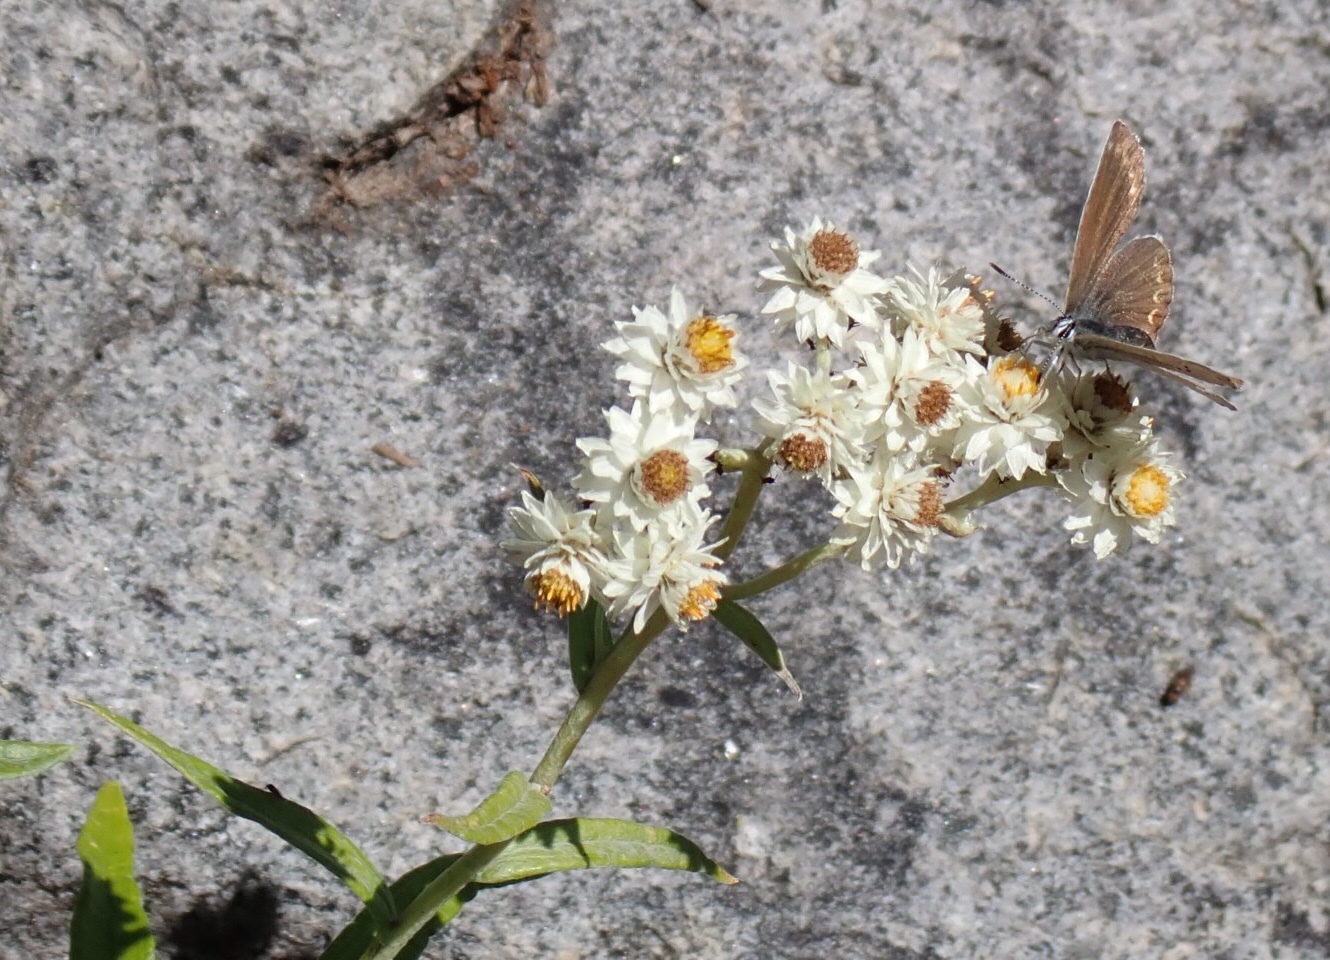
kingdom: Animalia
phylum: Arthropoda
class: Insecta
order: Lepidoptera
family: Lycaenidae
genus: Lycaeides
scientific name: Lycaeides anna
